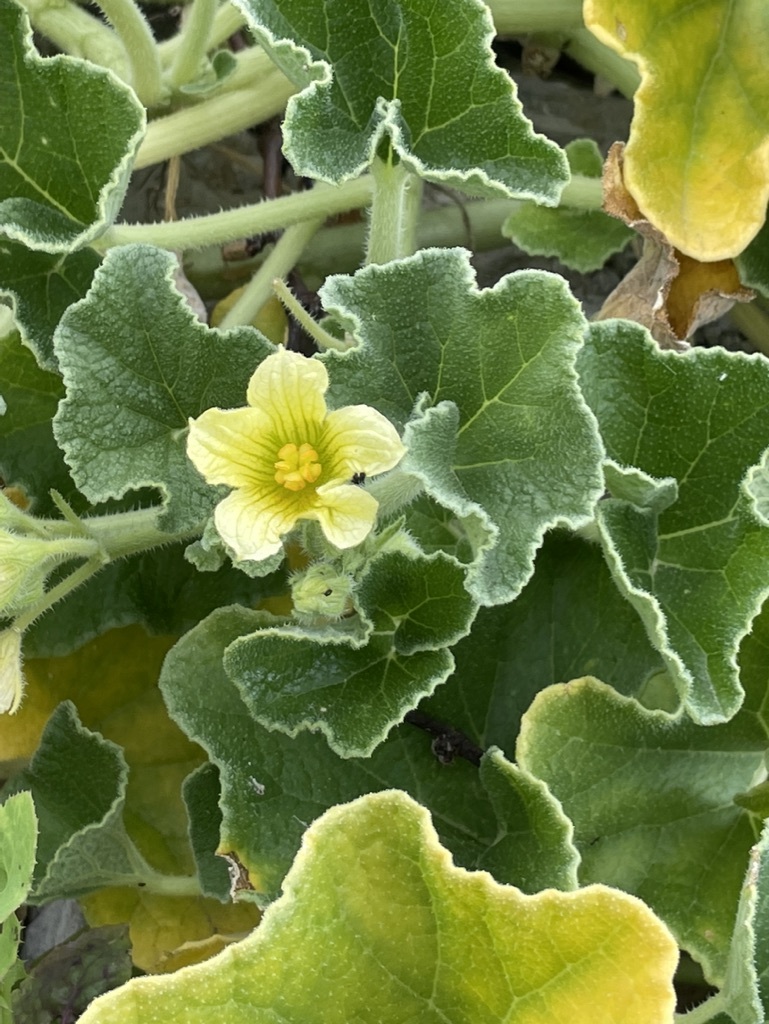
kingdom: Plantae
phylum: Tracheophyta
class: Magnoliopsida
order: Cucurbitales
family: Cucurbitaceae
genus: Ecballium
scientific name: Ecballium elaterium
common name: Squirting cucumber
